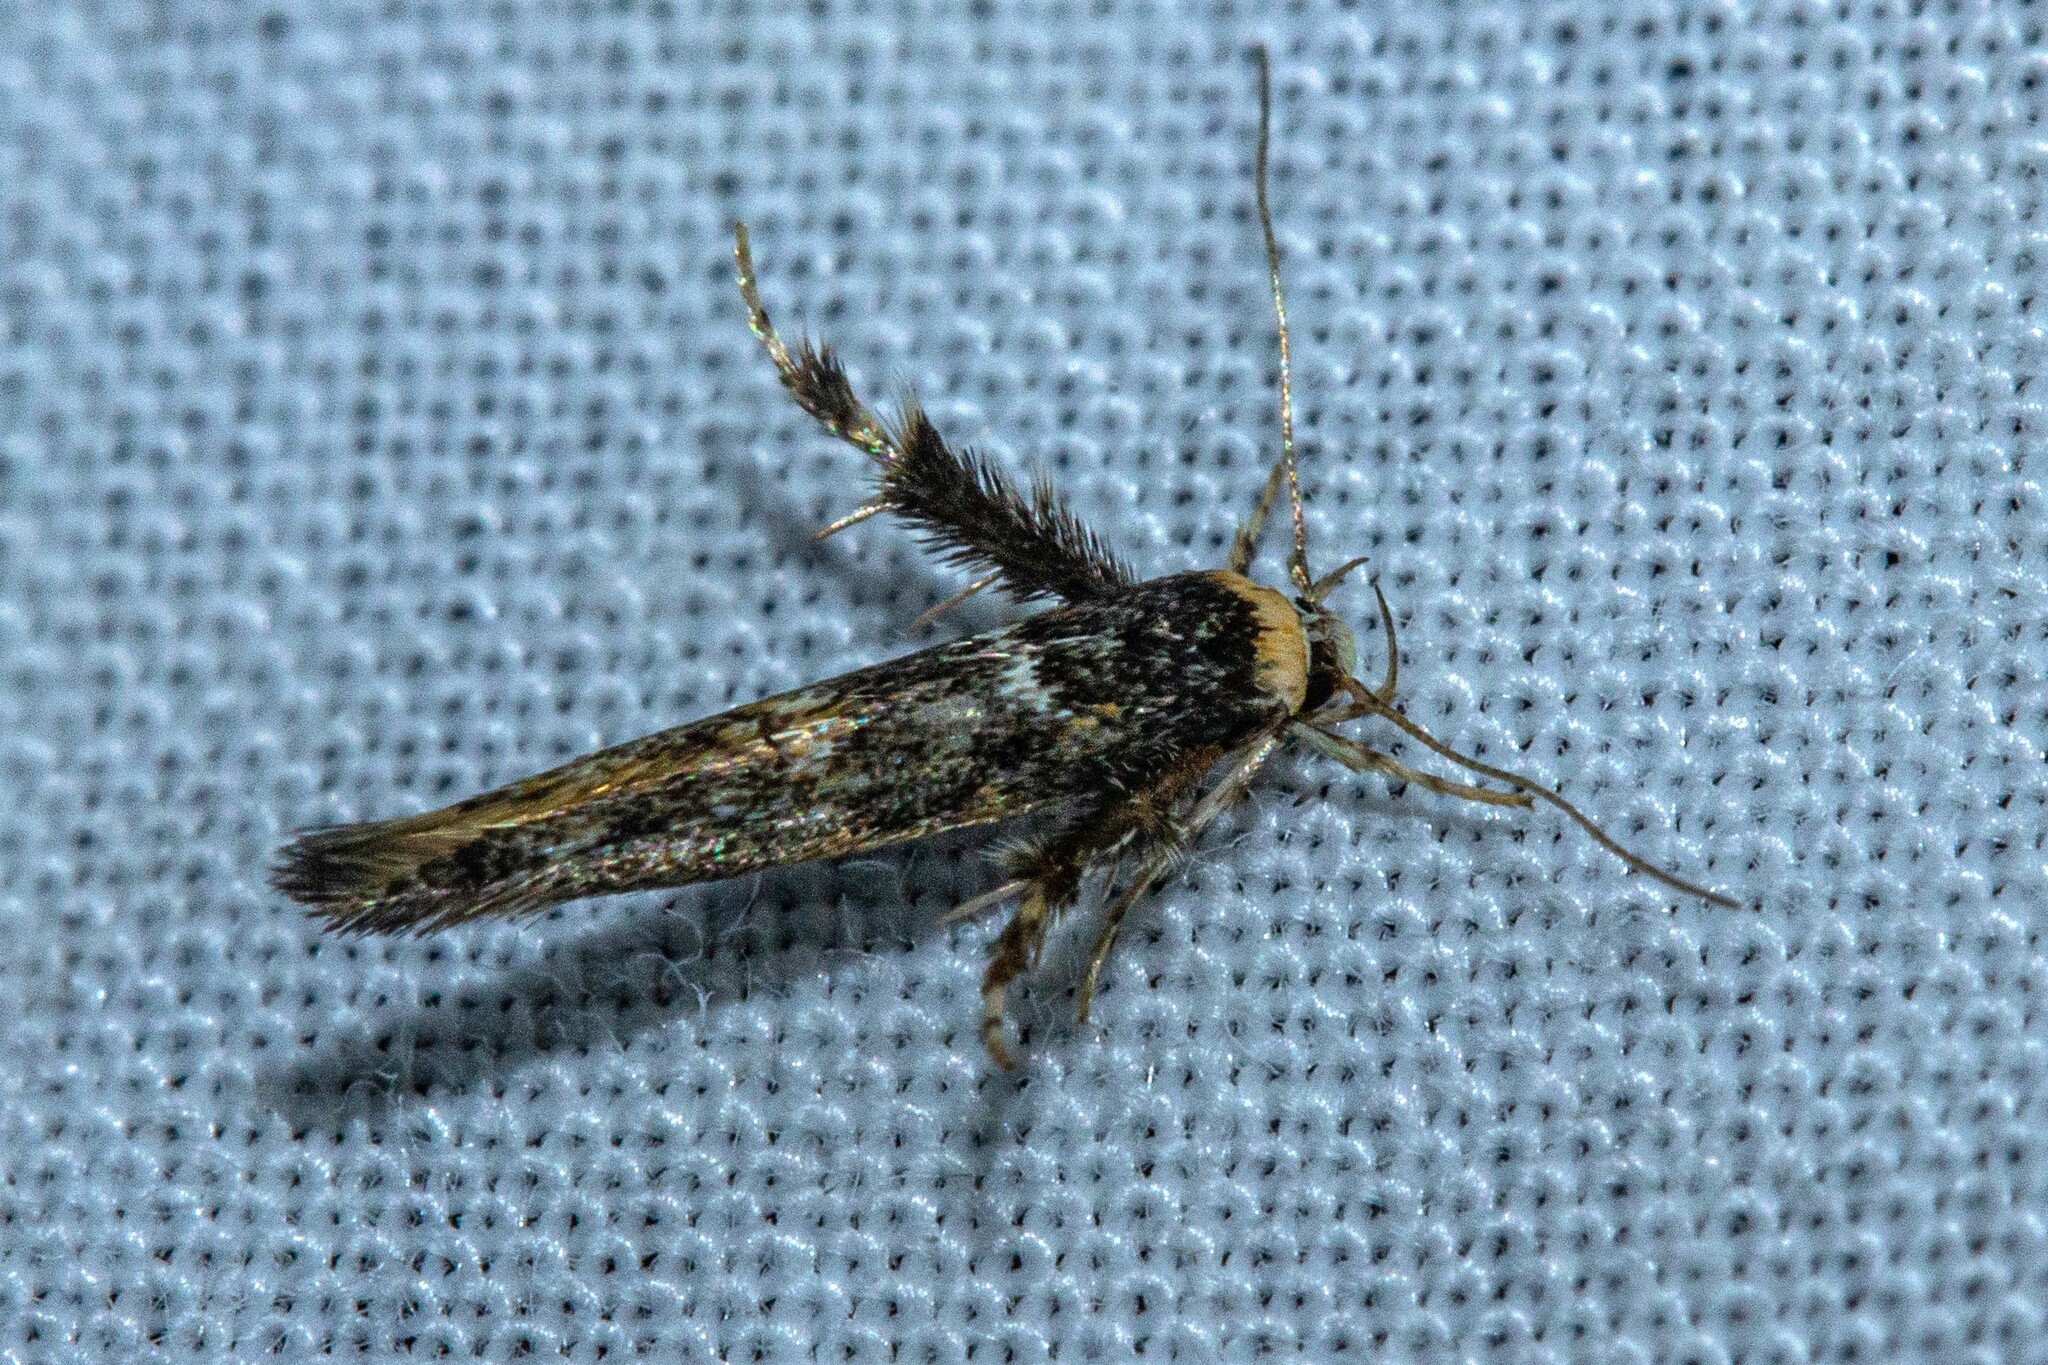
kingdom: Animalia
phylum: Arthropoda
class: Insecta
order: Lepidoptera
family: Stathmopodidae
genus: Stathmopoda
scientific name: Stathmopoda albimaculata
